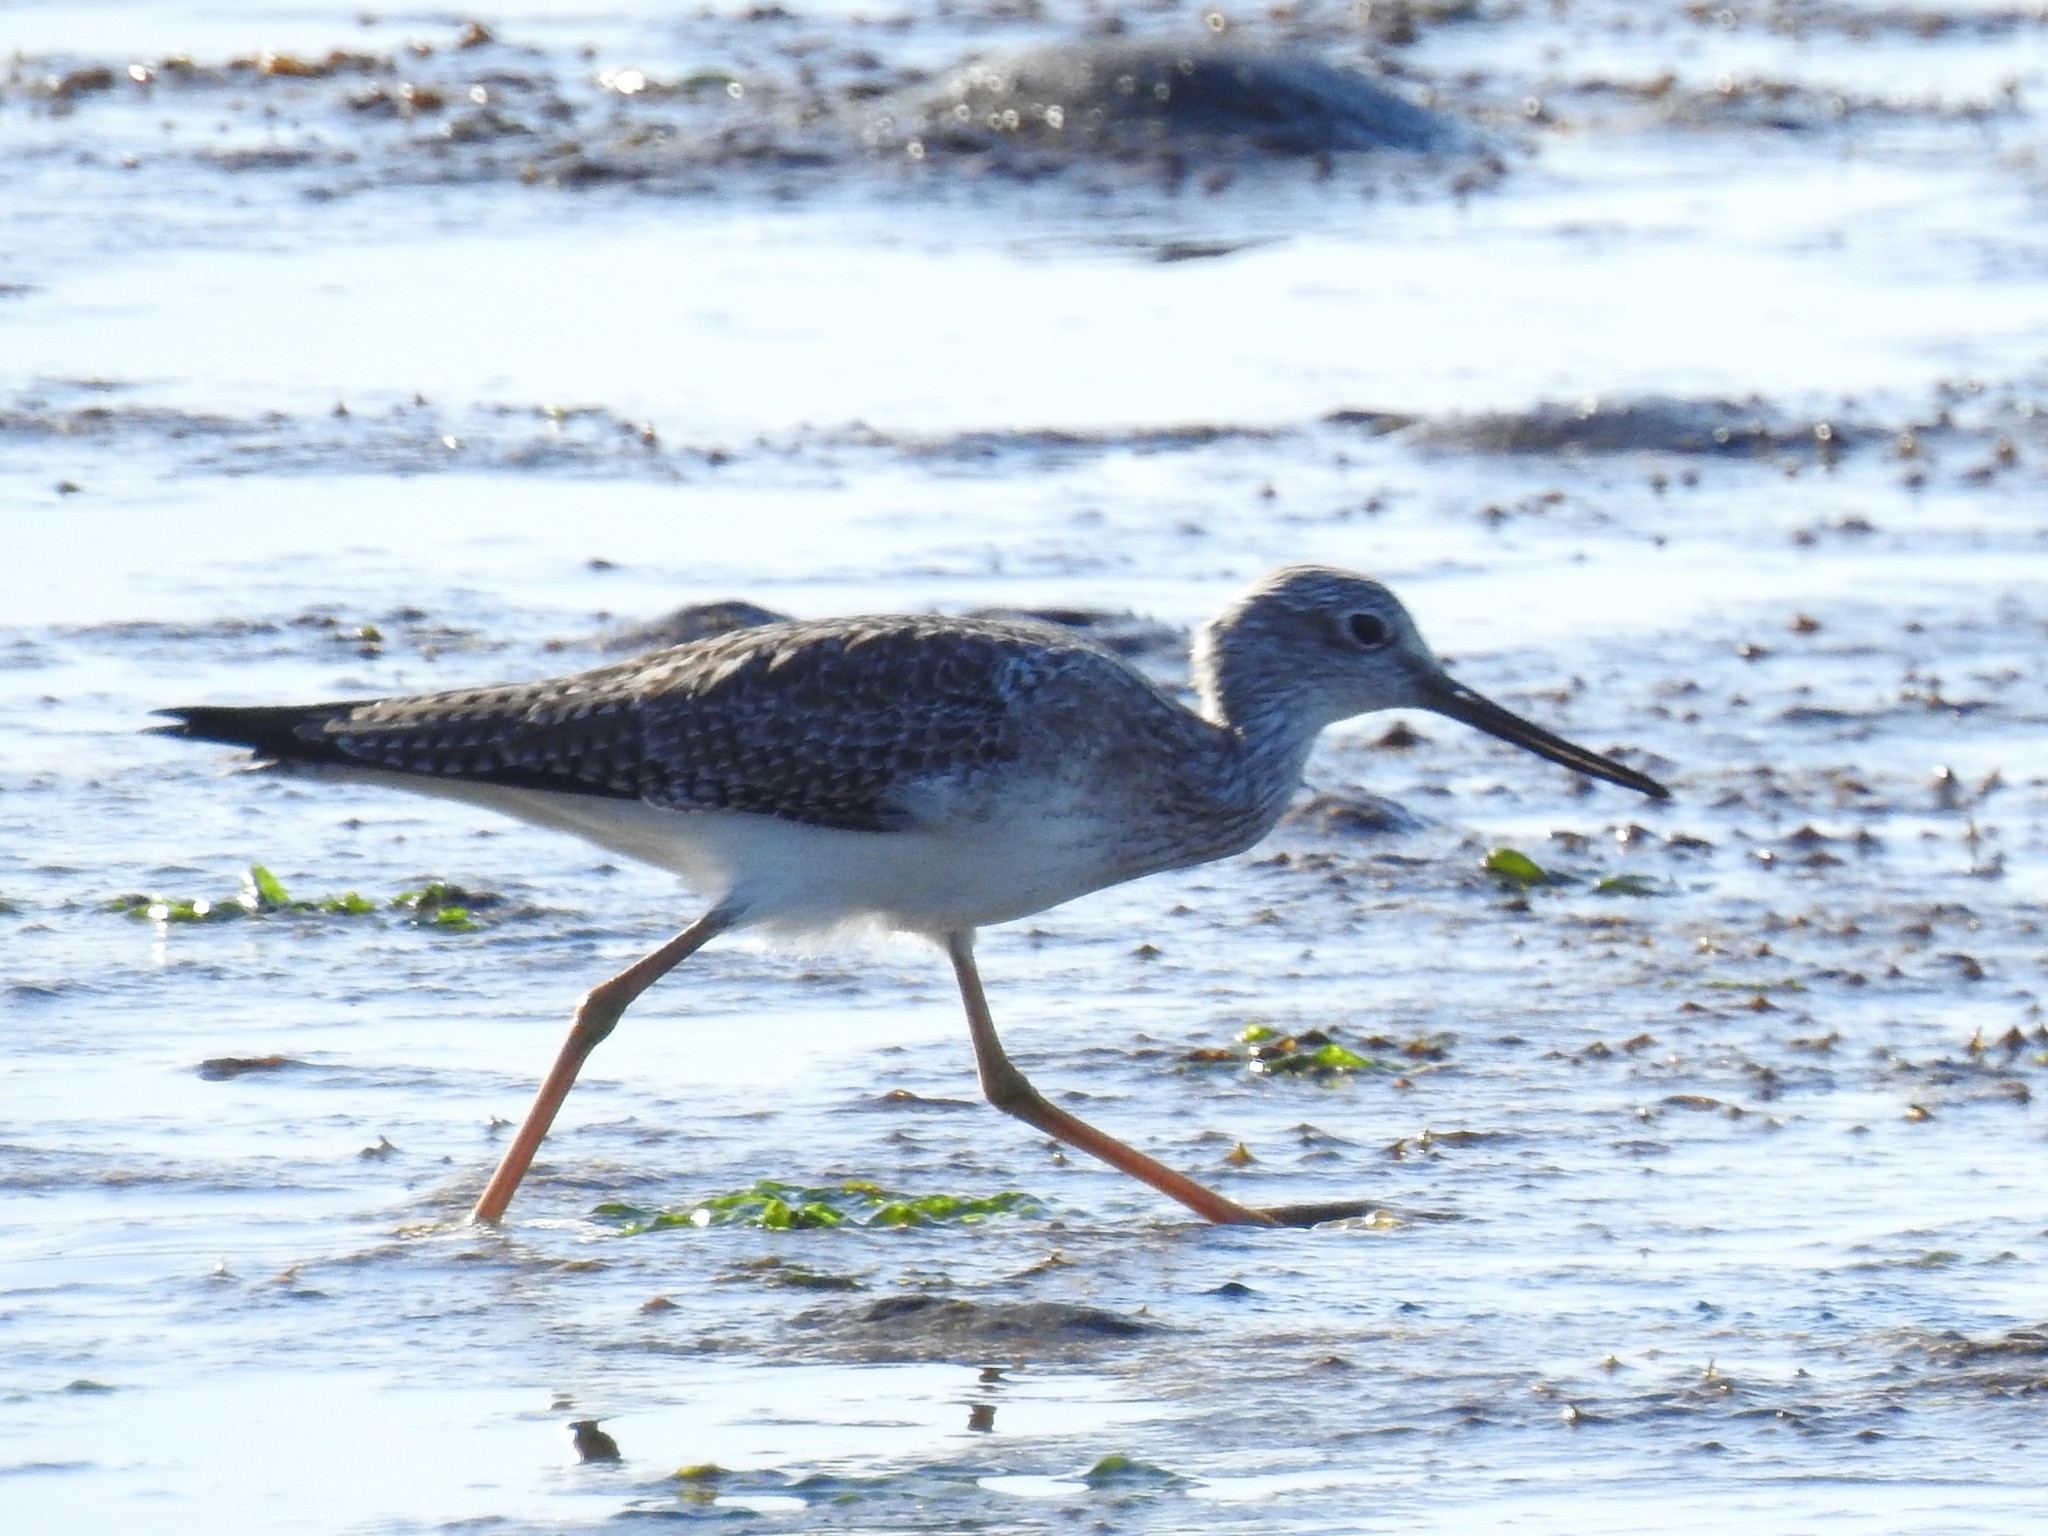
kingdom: Animalia
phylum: Chordata
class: Aves
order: Charadriiformes
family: Scolopacidae
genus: Tringa
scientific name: Tringa melanoleuca
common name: Greater yellowlegs
